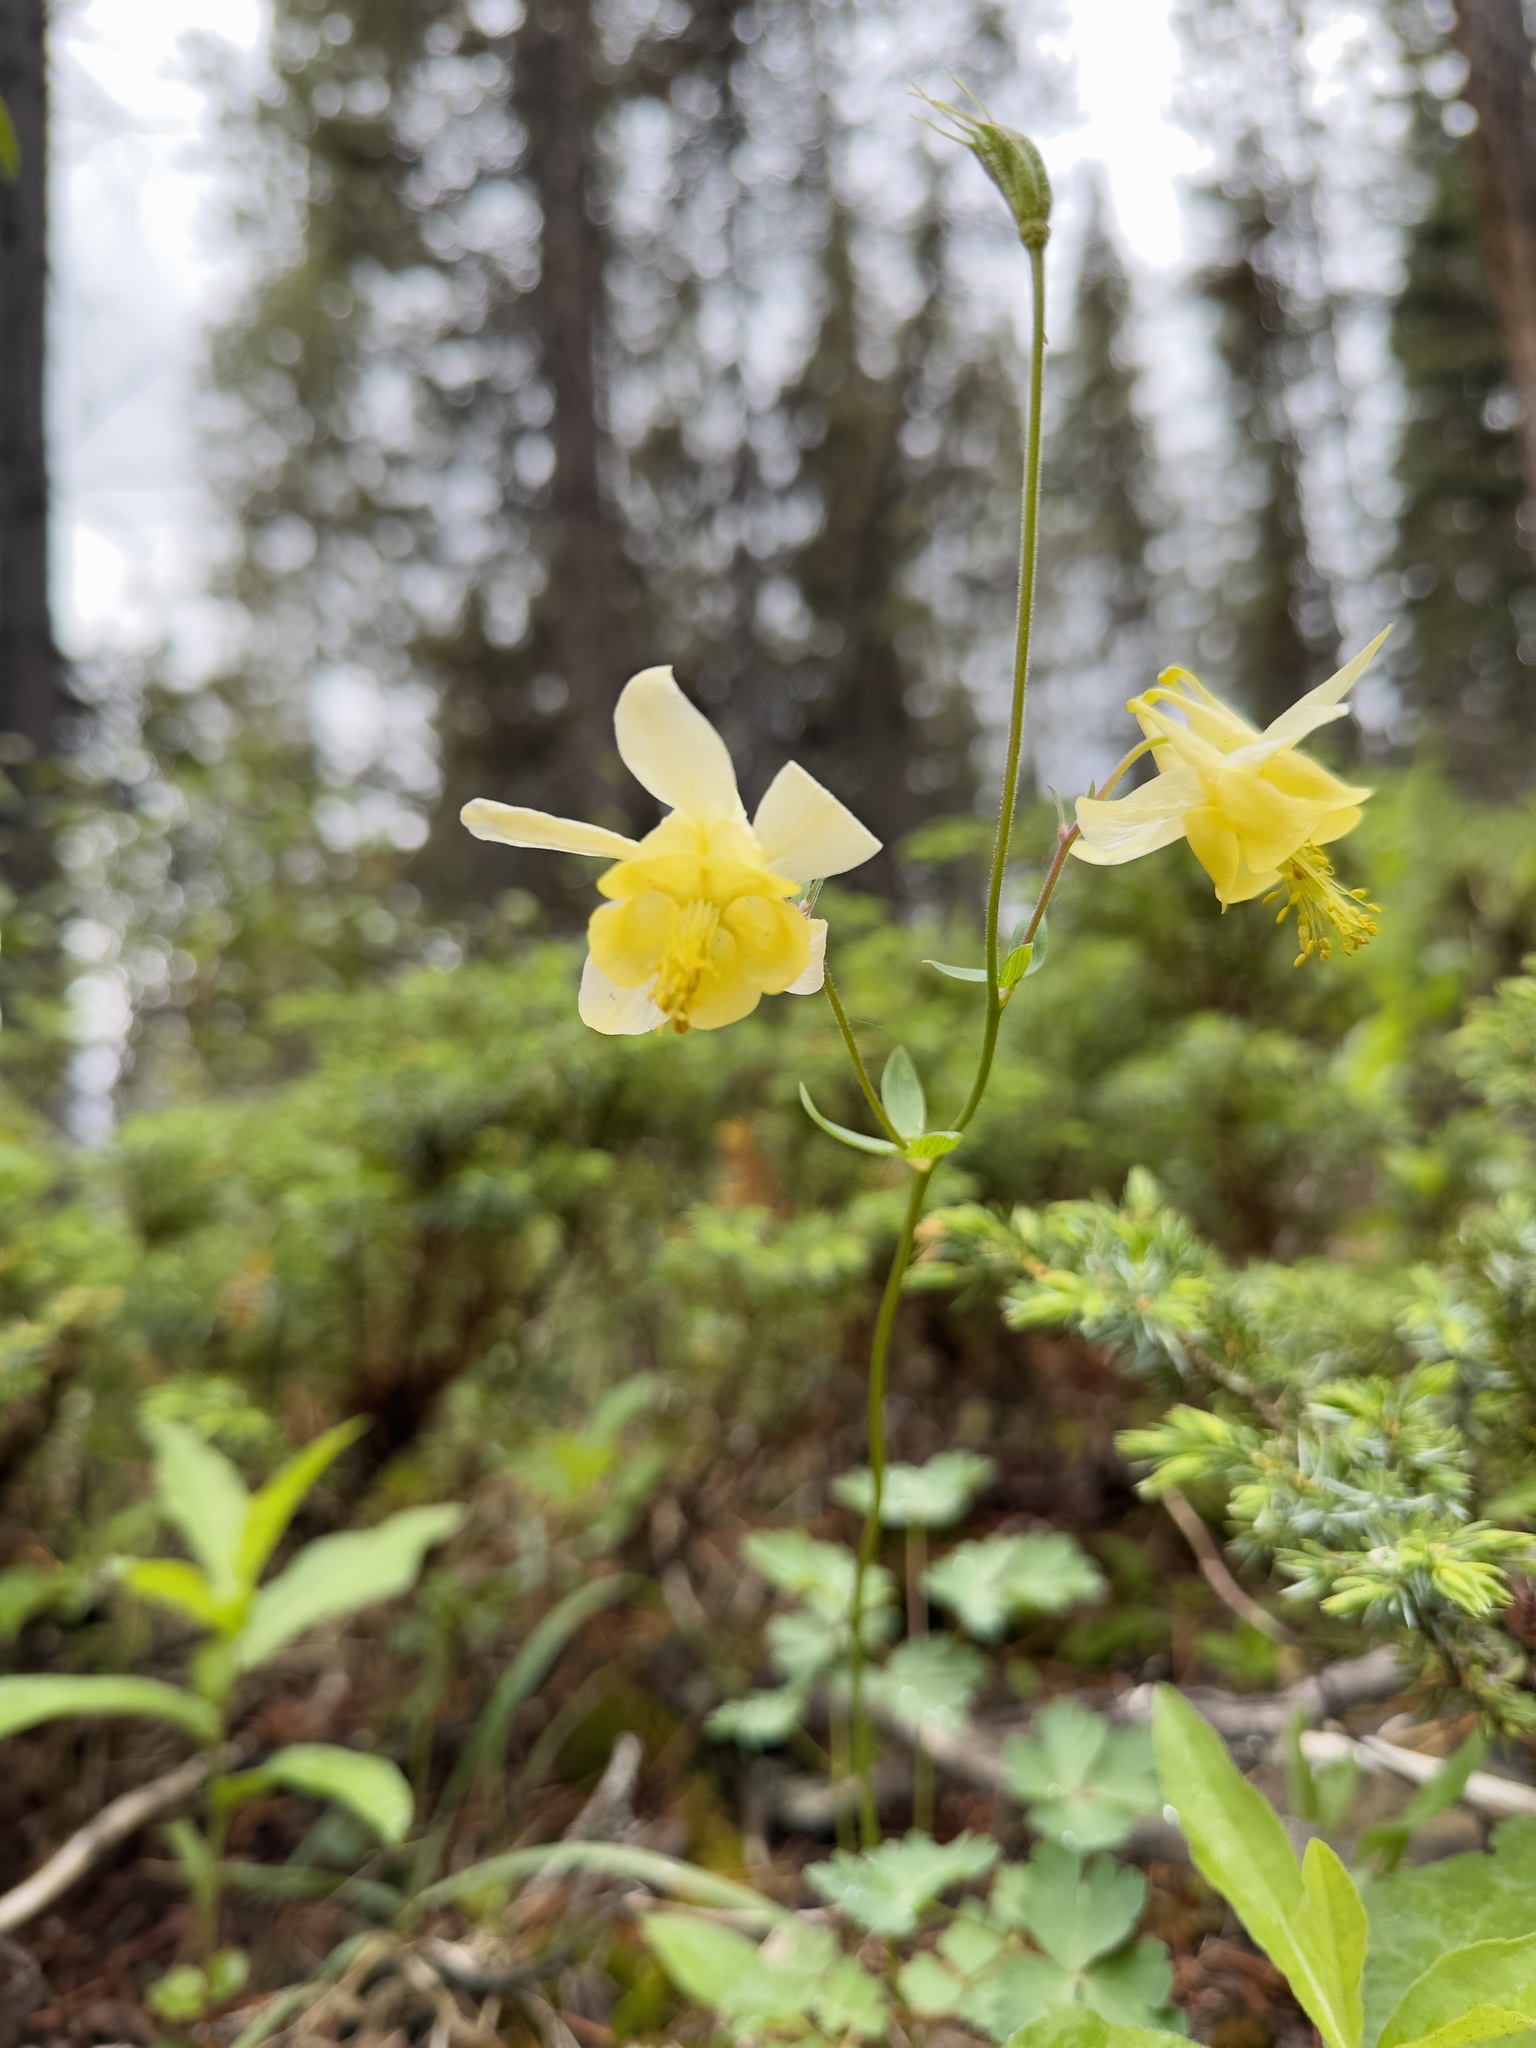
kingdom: Plantae
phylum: Tracheophyta
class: Magnoliopsida
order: Ranunculales
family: Ranunculaceae
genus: Aquilegia
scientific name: Aquilegia flavescens
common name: Yellow columbine
